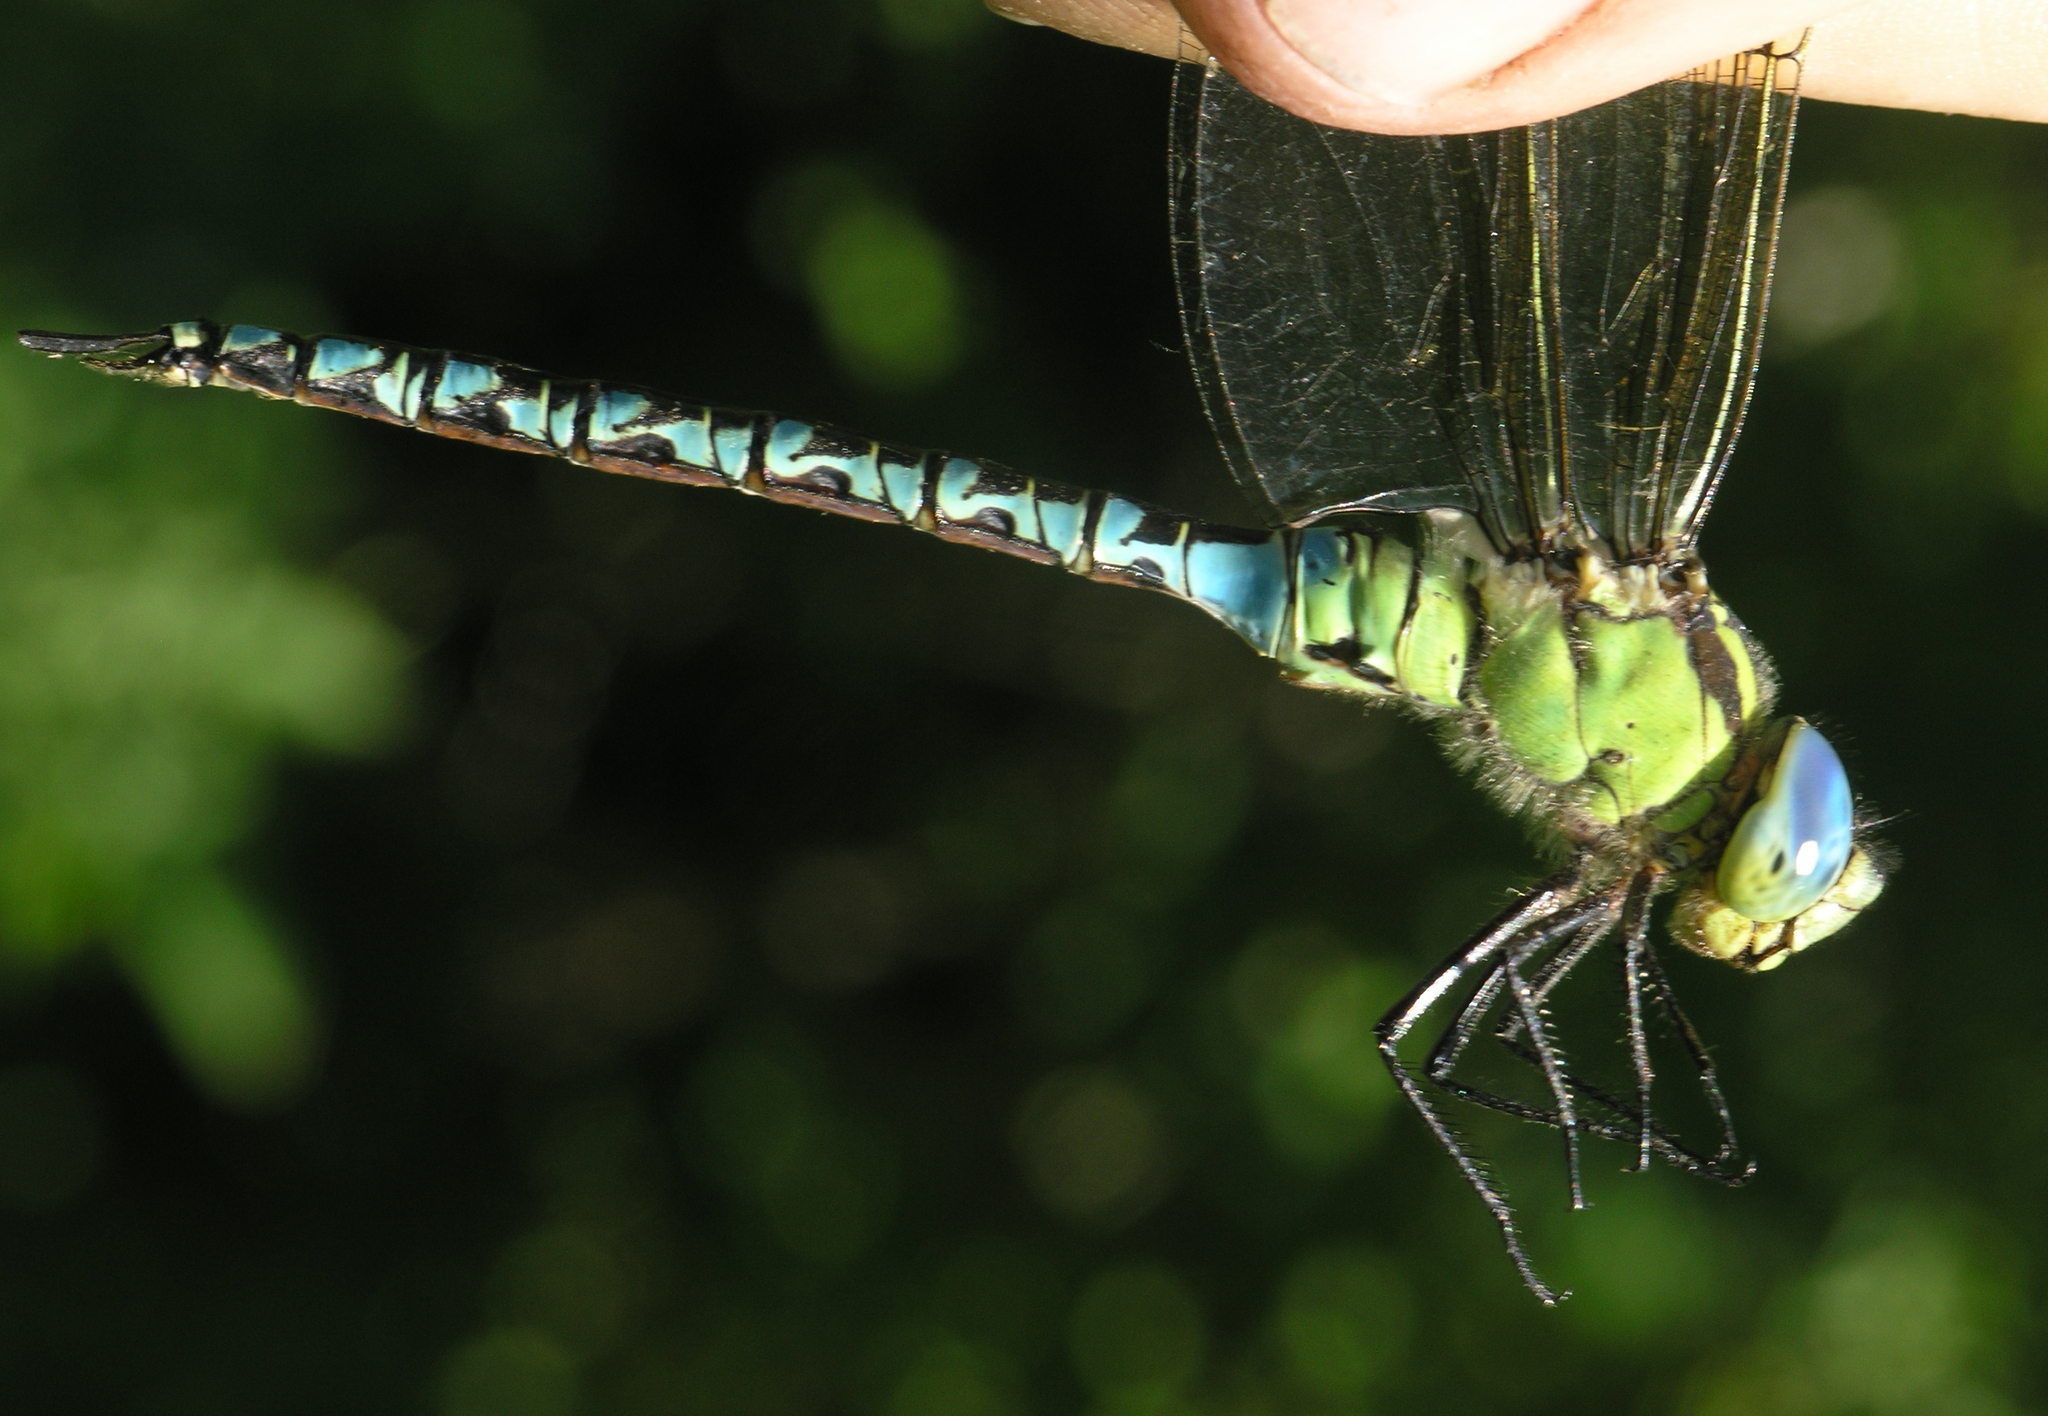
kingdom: Animalia
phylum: Arthropoda
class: Insecta
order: Odonata
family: Aeshnidae
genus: Aeshna
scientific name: Aeshna viridis
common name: Green hawker
